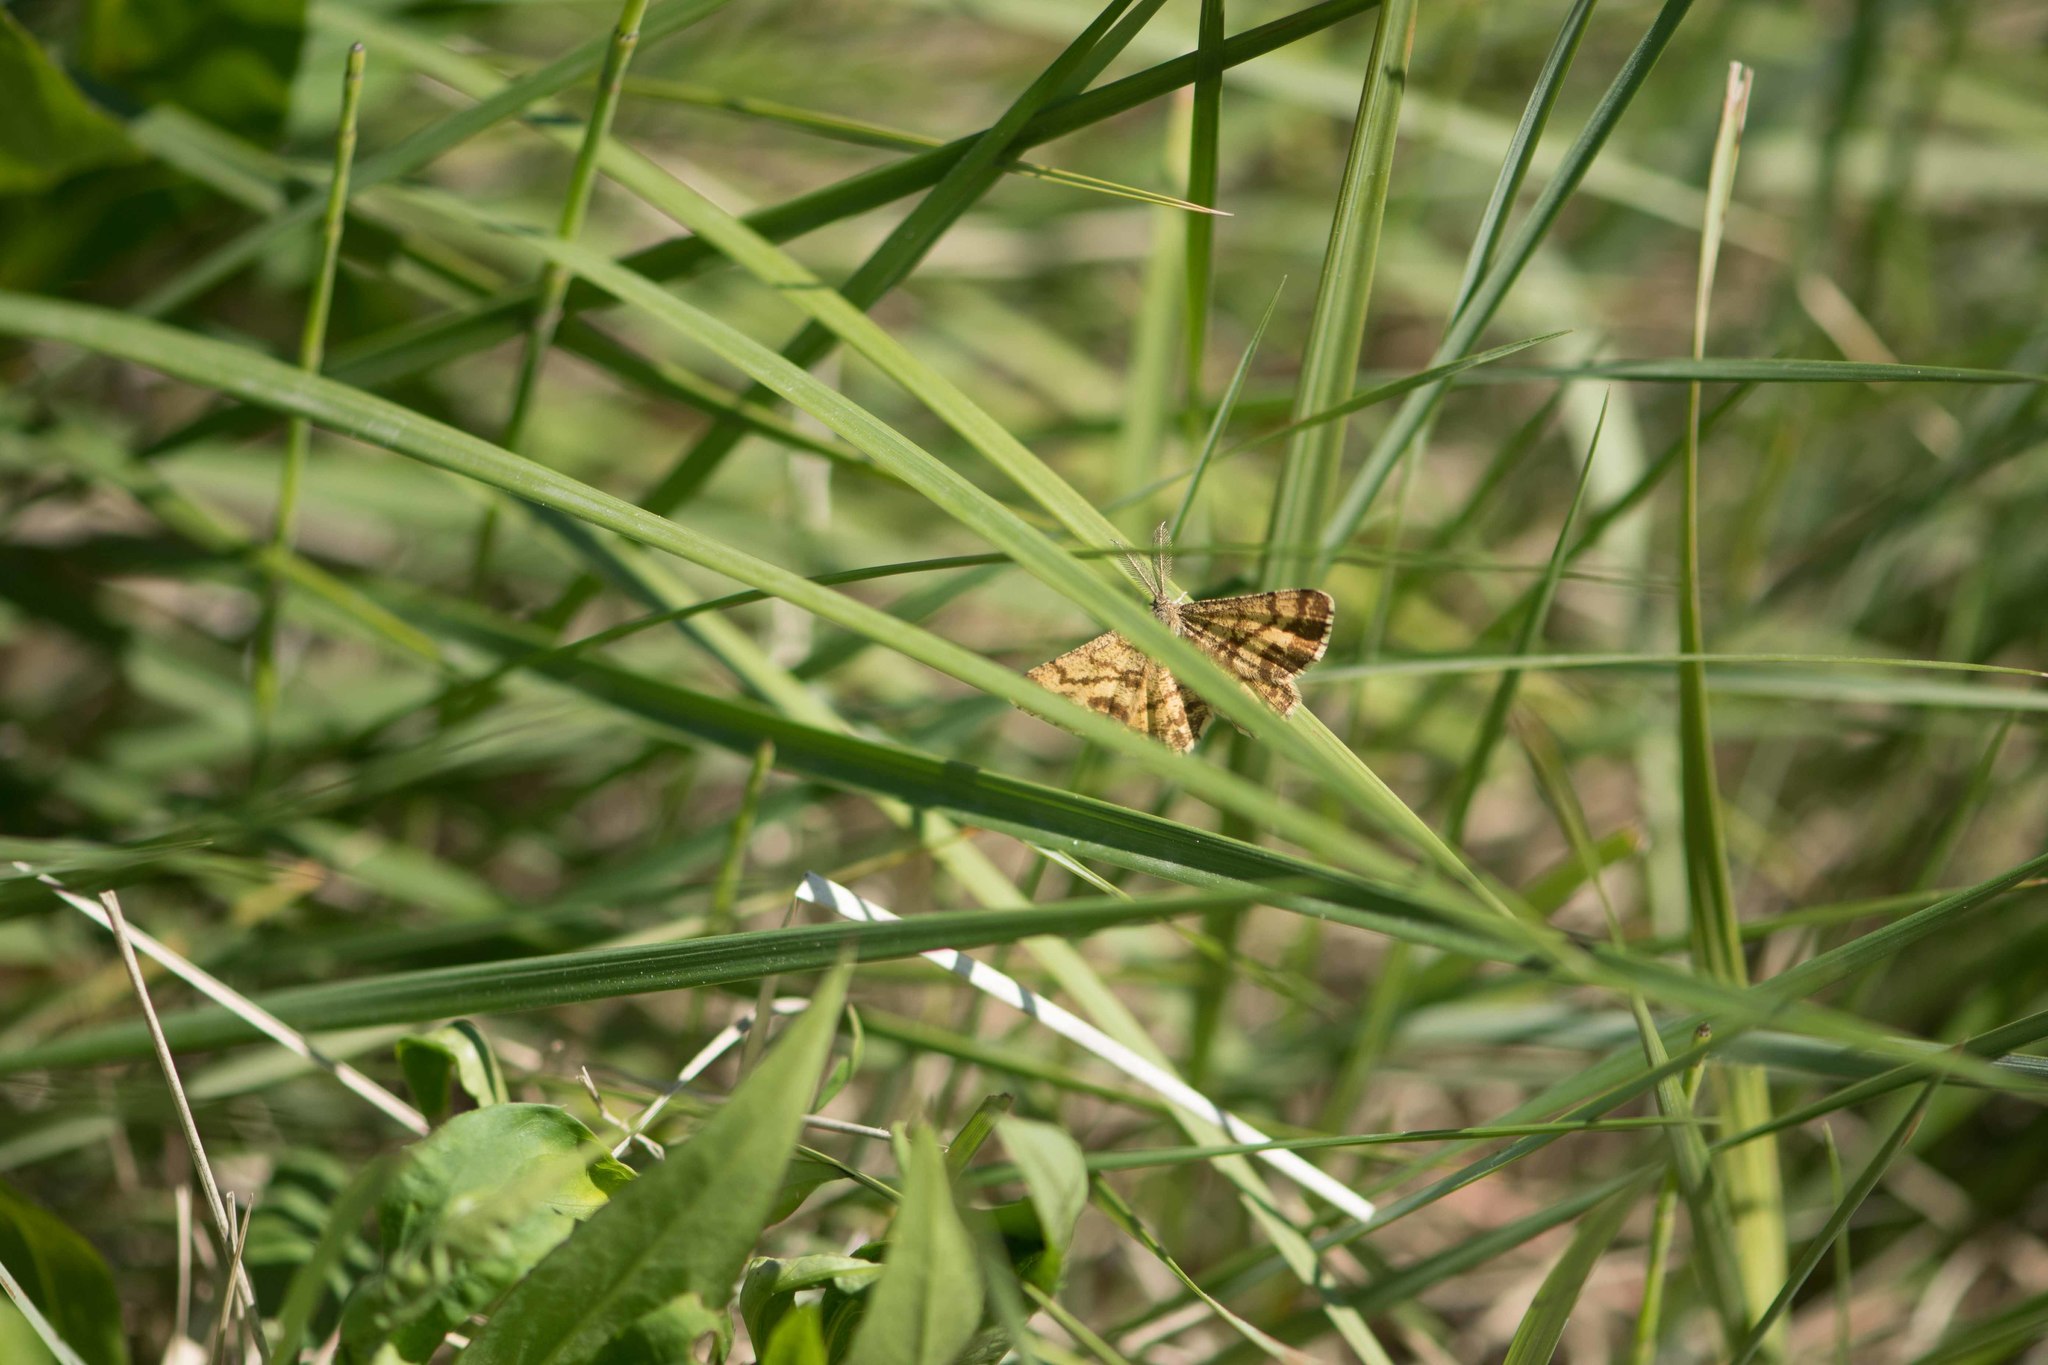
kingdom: Animalia
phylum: Arthropoda
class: Insecta
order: Lepidoptera
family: Geometridae
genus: Ematurga
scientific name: Ematurga atomaria
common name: Common heath
